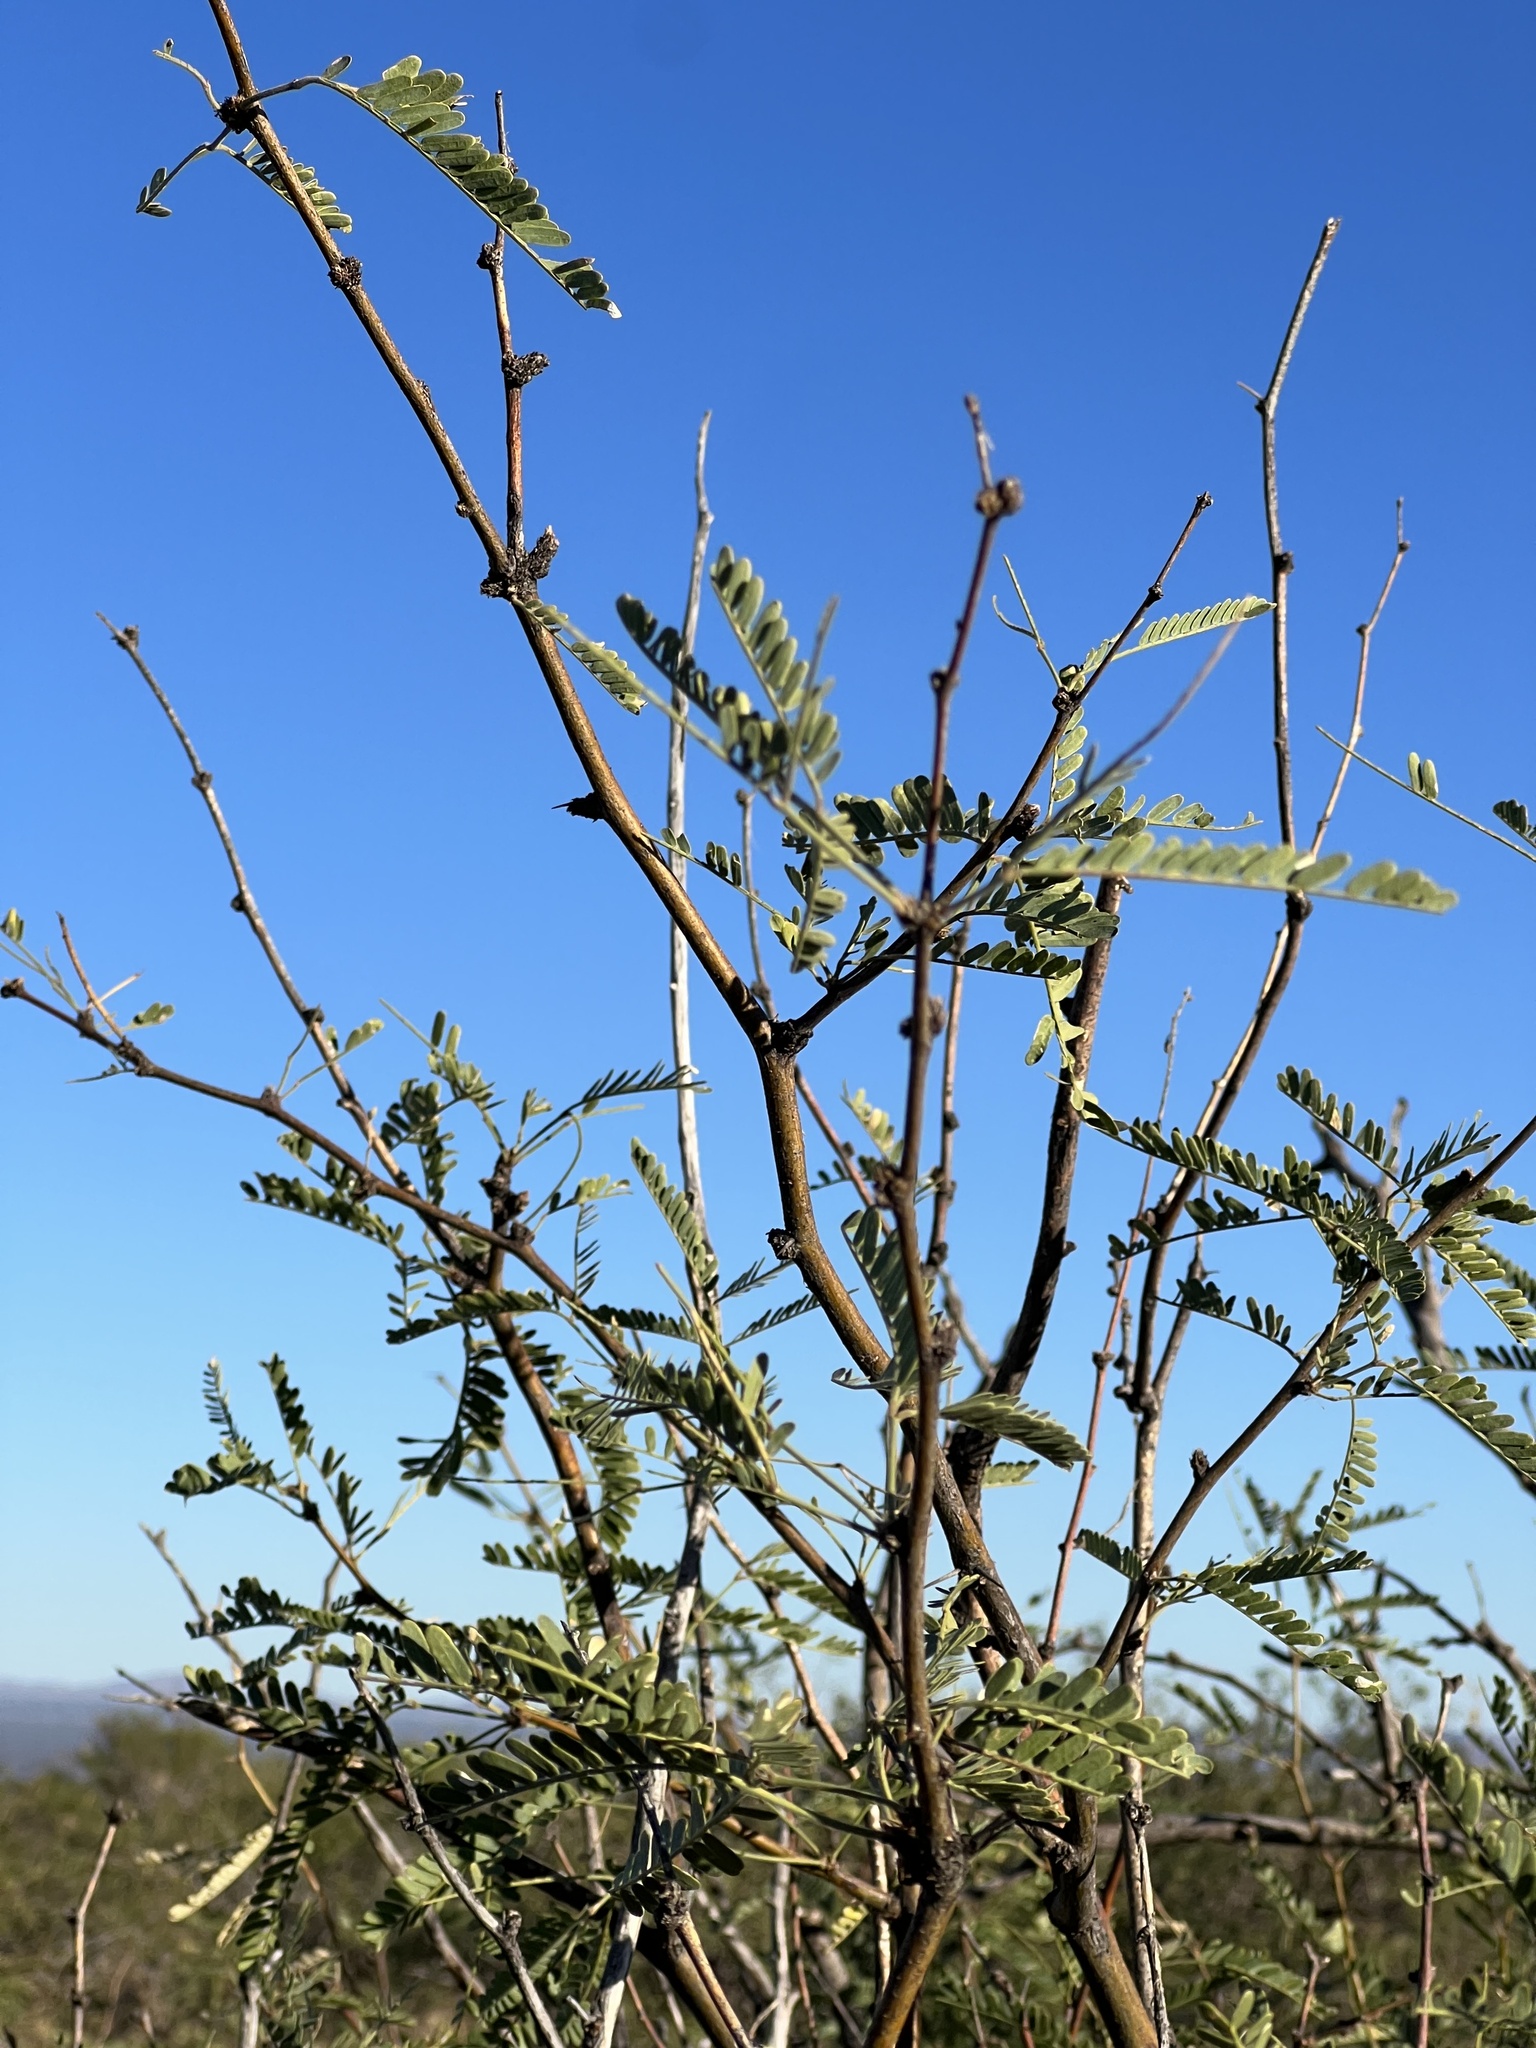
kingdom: Plantae
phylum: Tracheophyta
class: Magnoliopsida
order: Fabales
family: Fabaceae
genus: Prosopis
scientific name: Prosopis velutina
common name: Velvet mesquite
